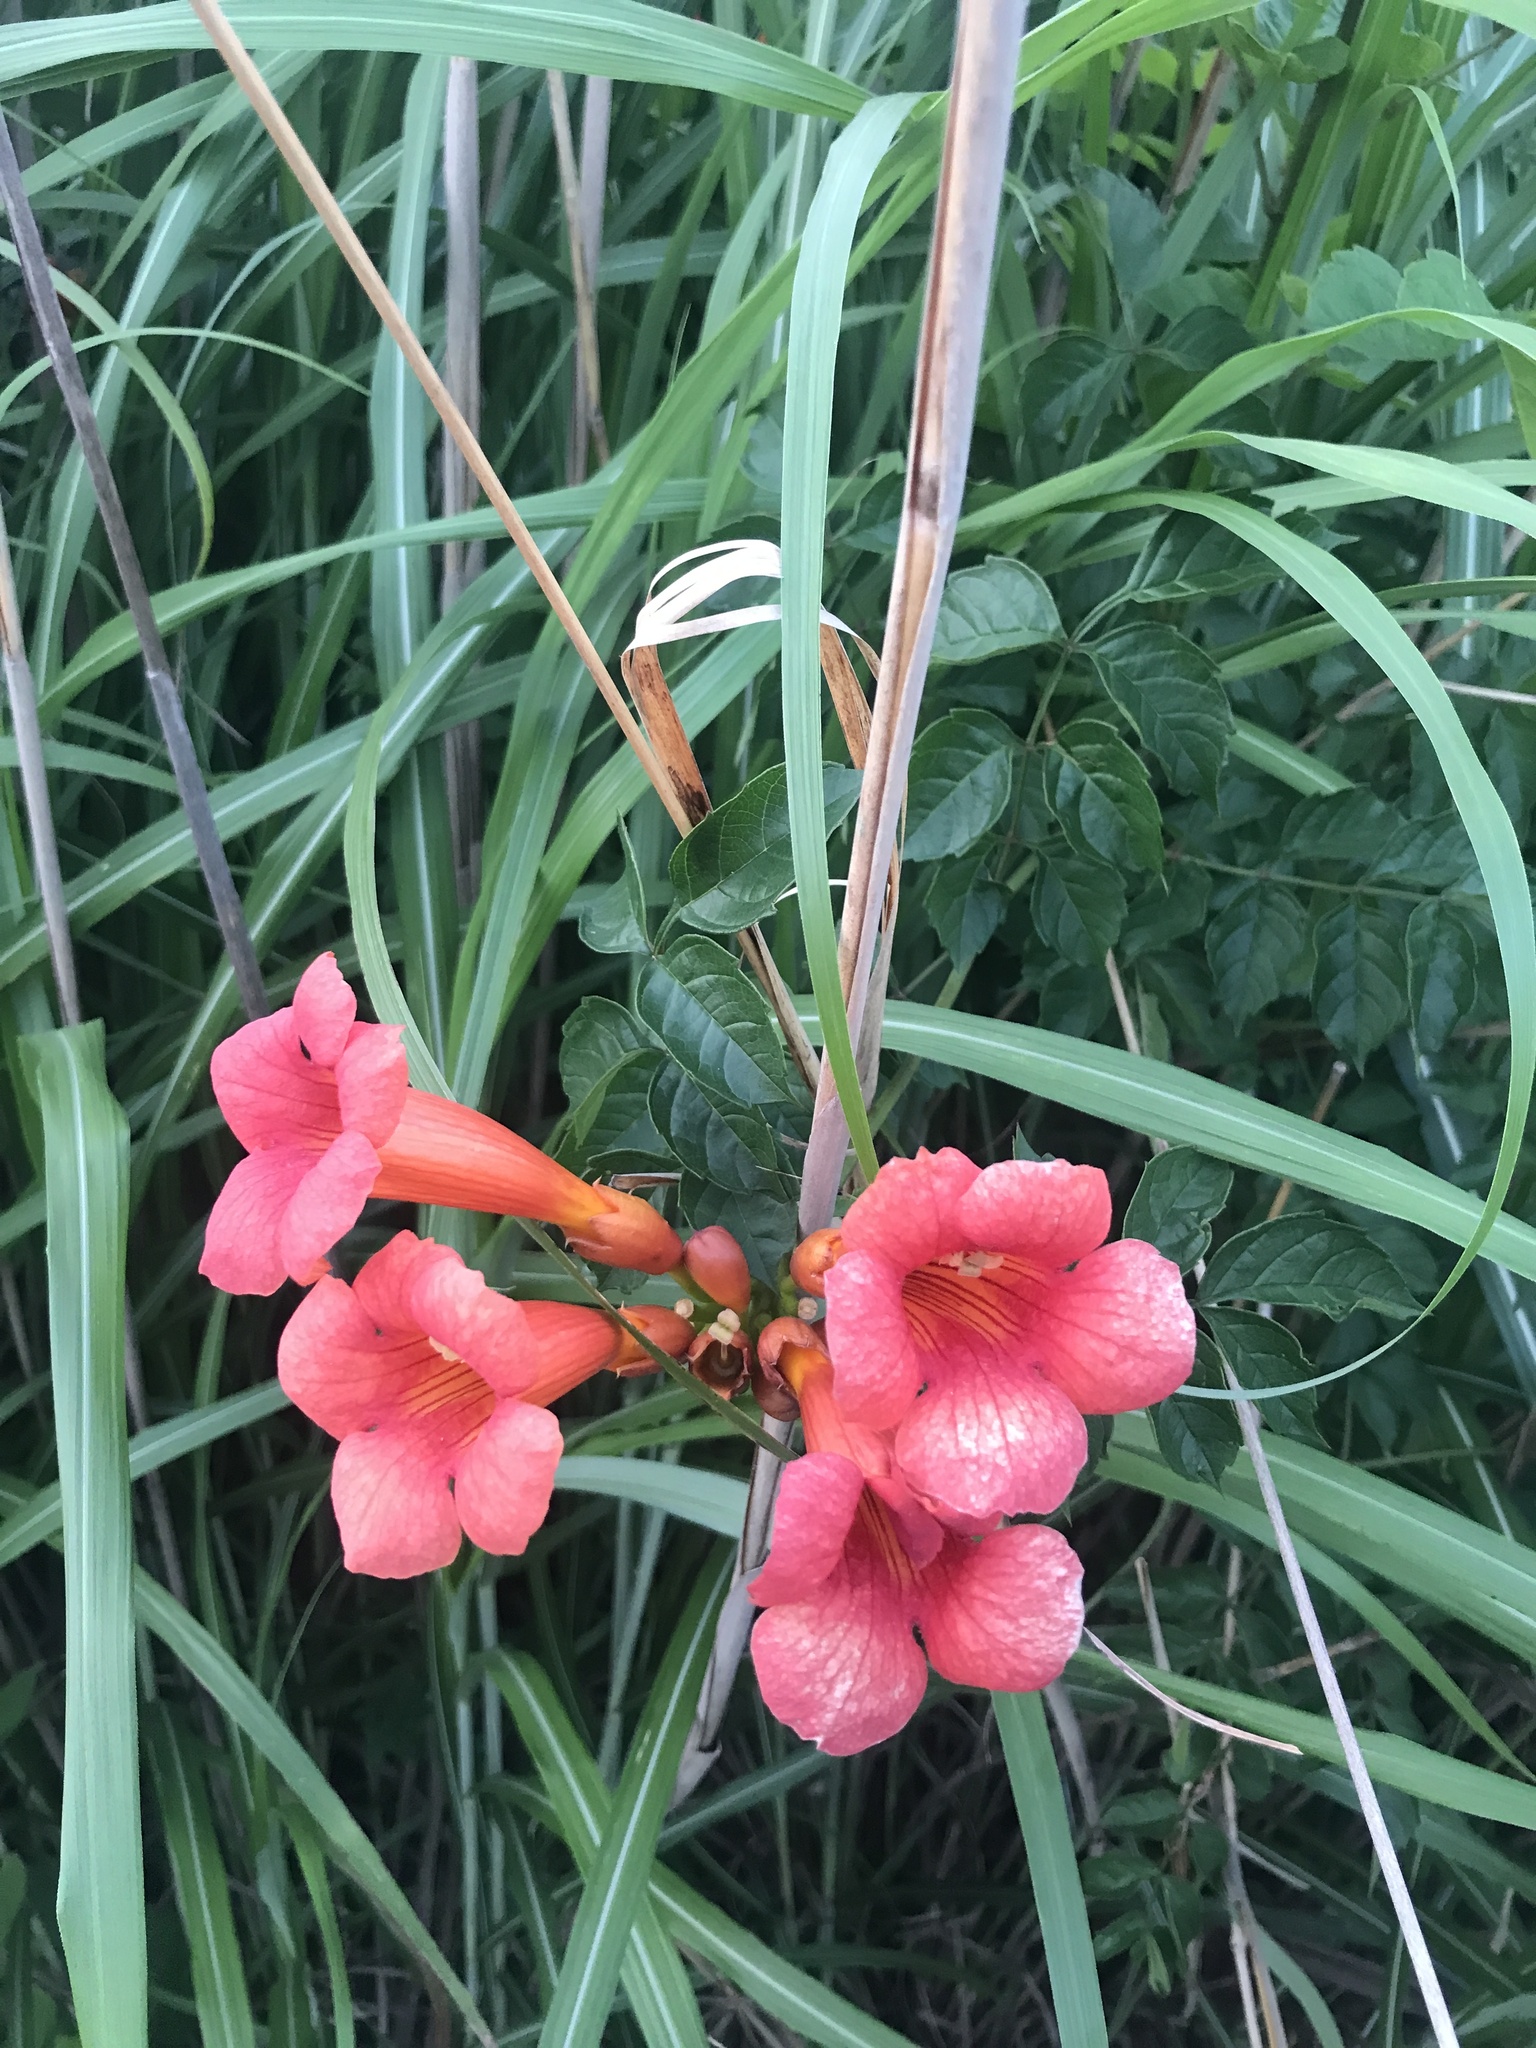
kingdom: Plantae
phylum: Tracheophyta
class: Magnoliopsida
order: Lamiales
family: Bignoniaceae
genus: Campsis
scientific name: Campsis radicans
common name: Trumpet-creeper
